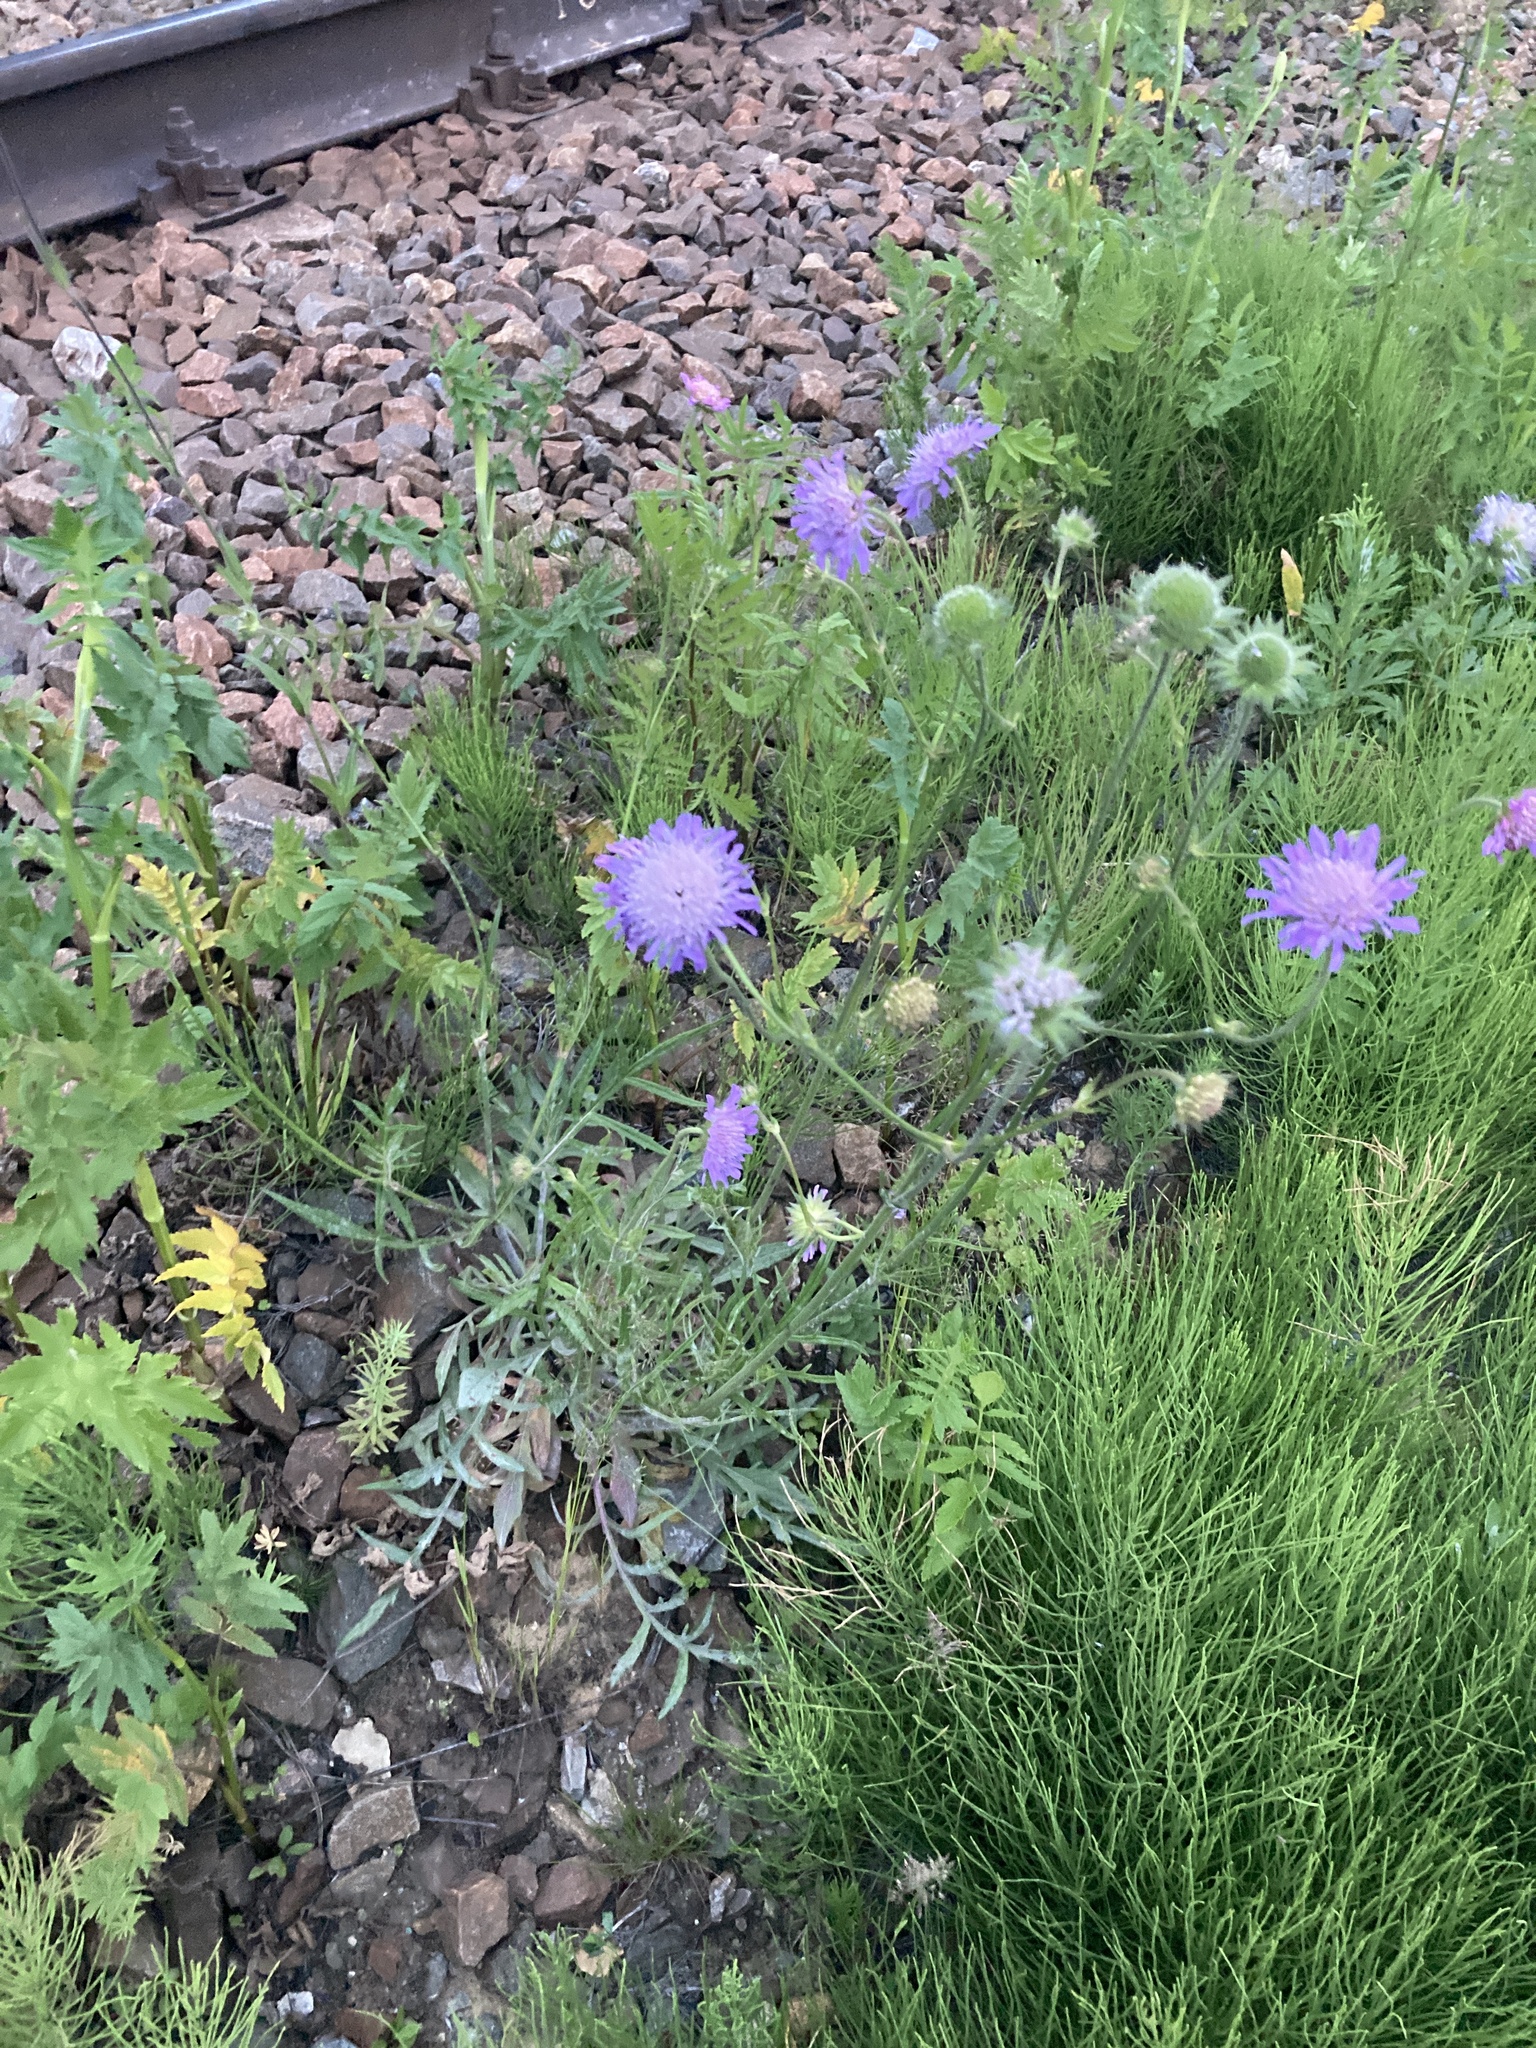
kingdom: Plantae
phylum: Tracheophyta
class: Magnoliopsida
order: Dipsacales
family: Caprifoliaceae
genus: Knautia
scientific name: Knautia arvensis
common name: Field scabiosa
